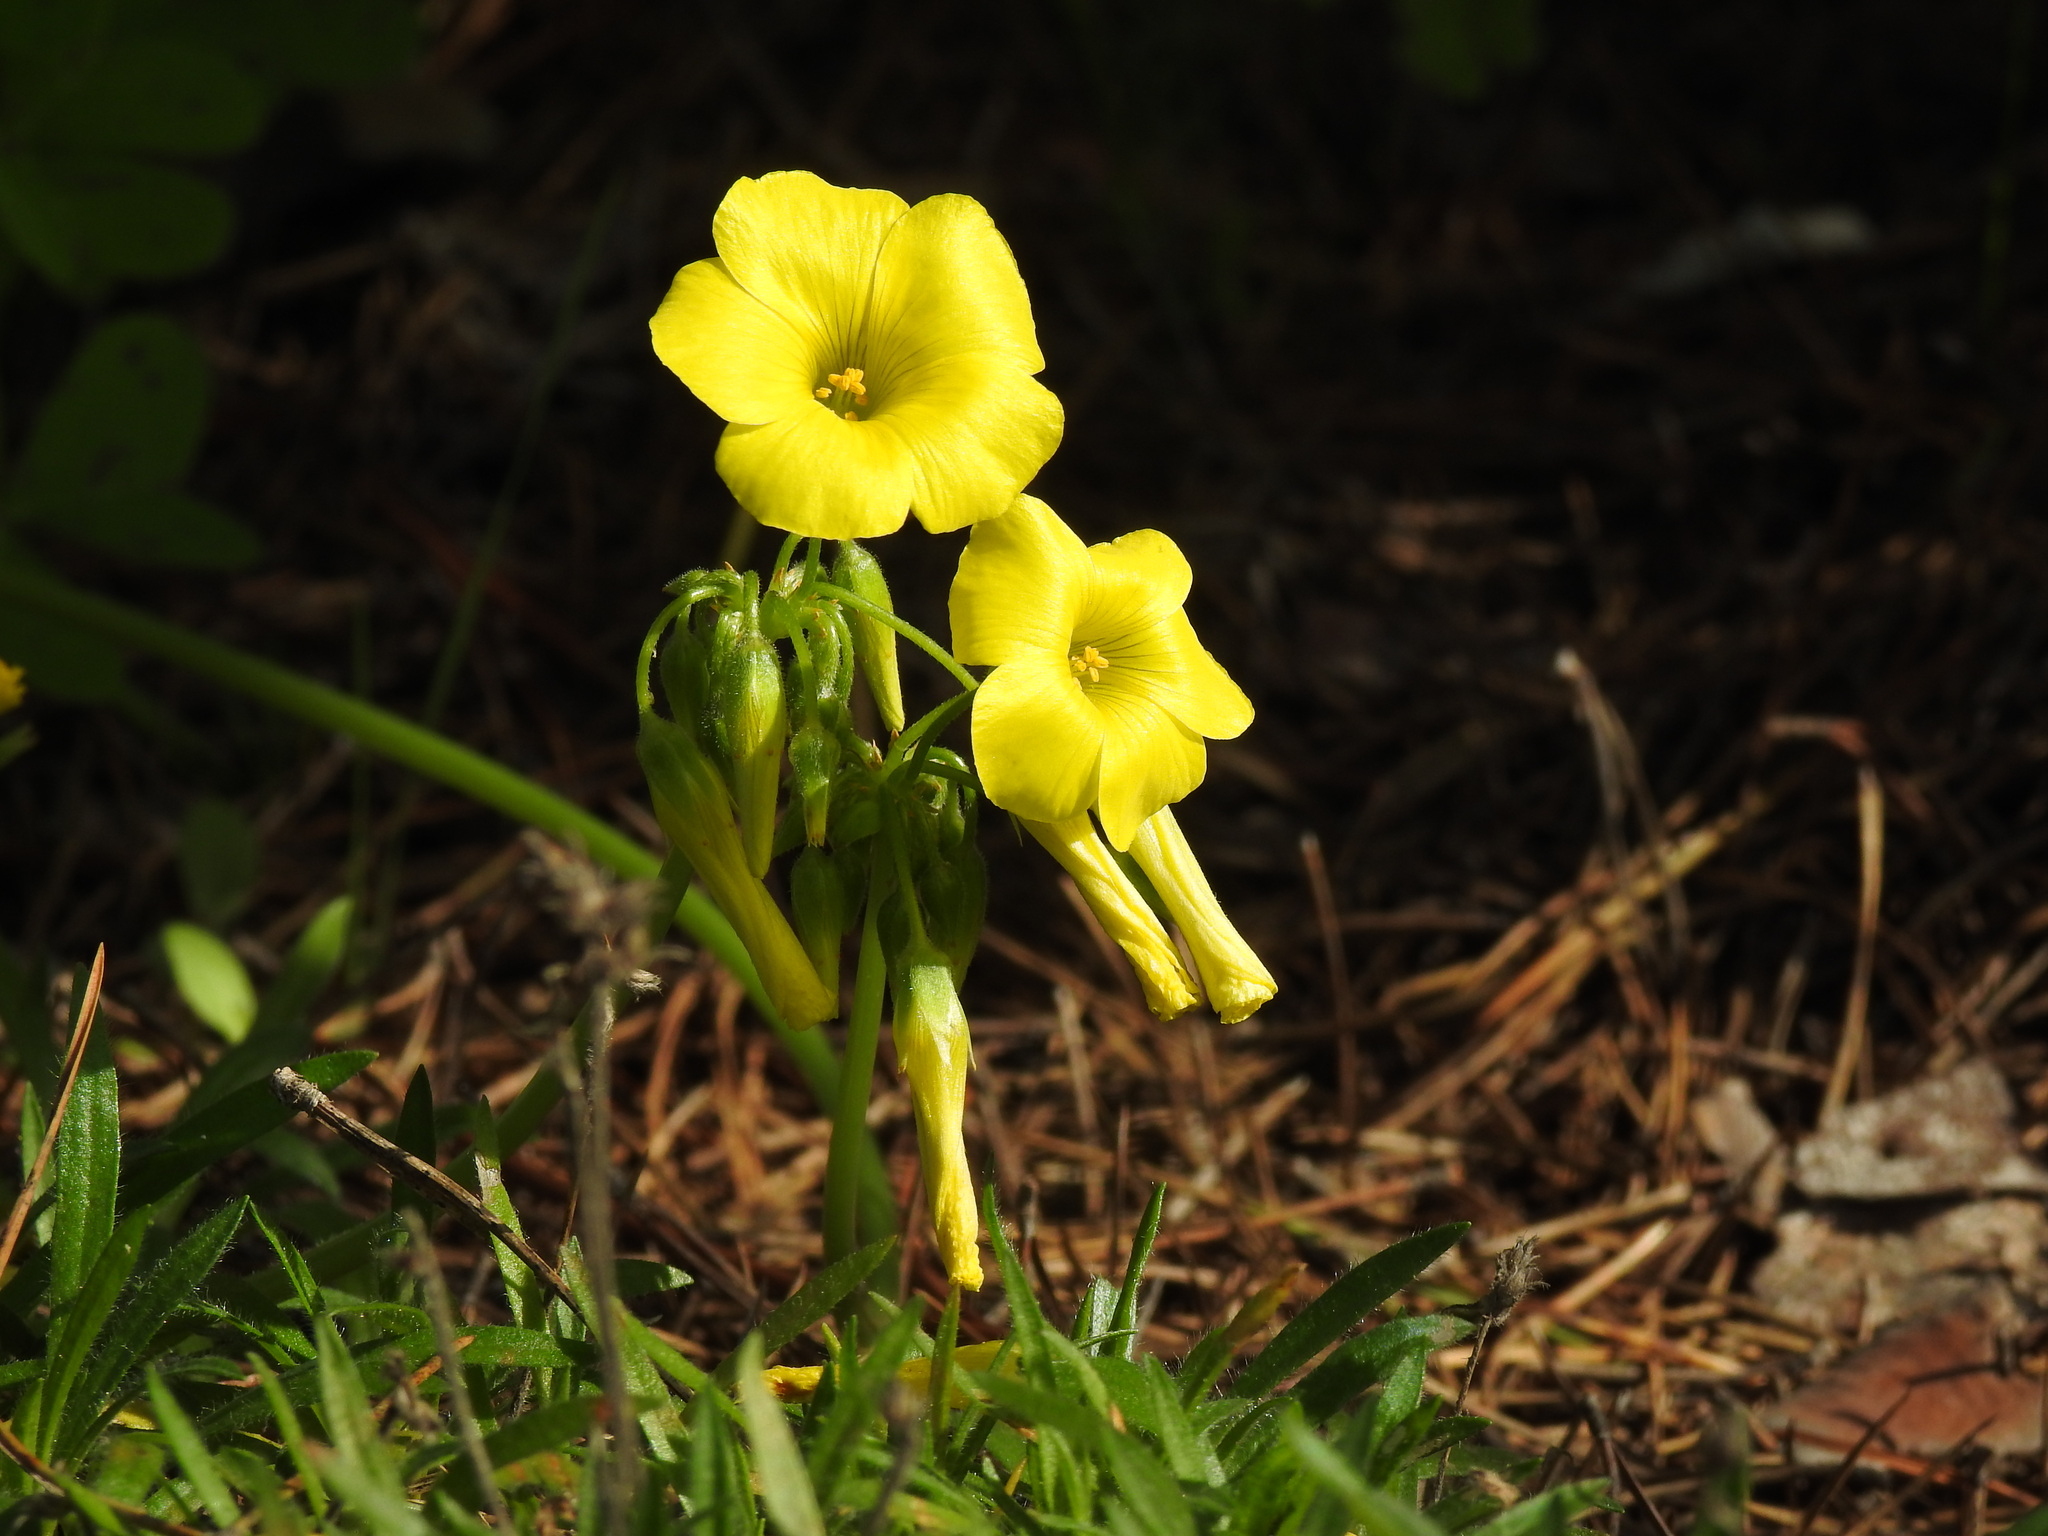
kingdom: Plantae
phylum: Tracheophyta
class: Magnoliopsida
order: Oxalidales
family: Oxalidaceae
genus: Oxalis
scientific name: Oxalis pes-caprae
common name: Bermuda-buttercup
